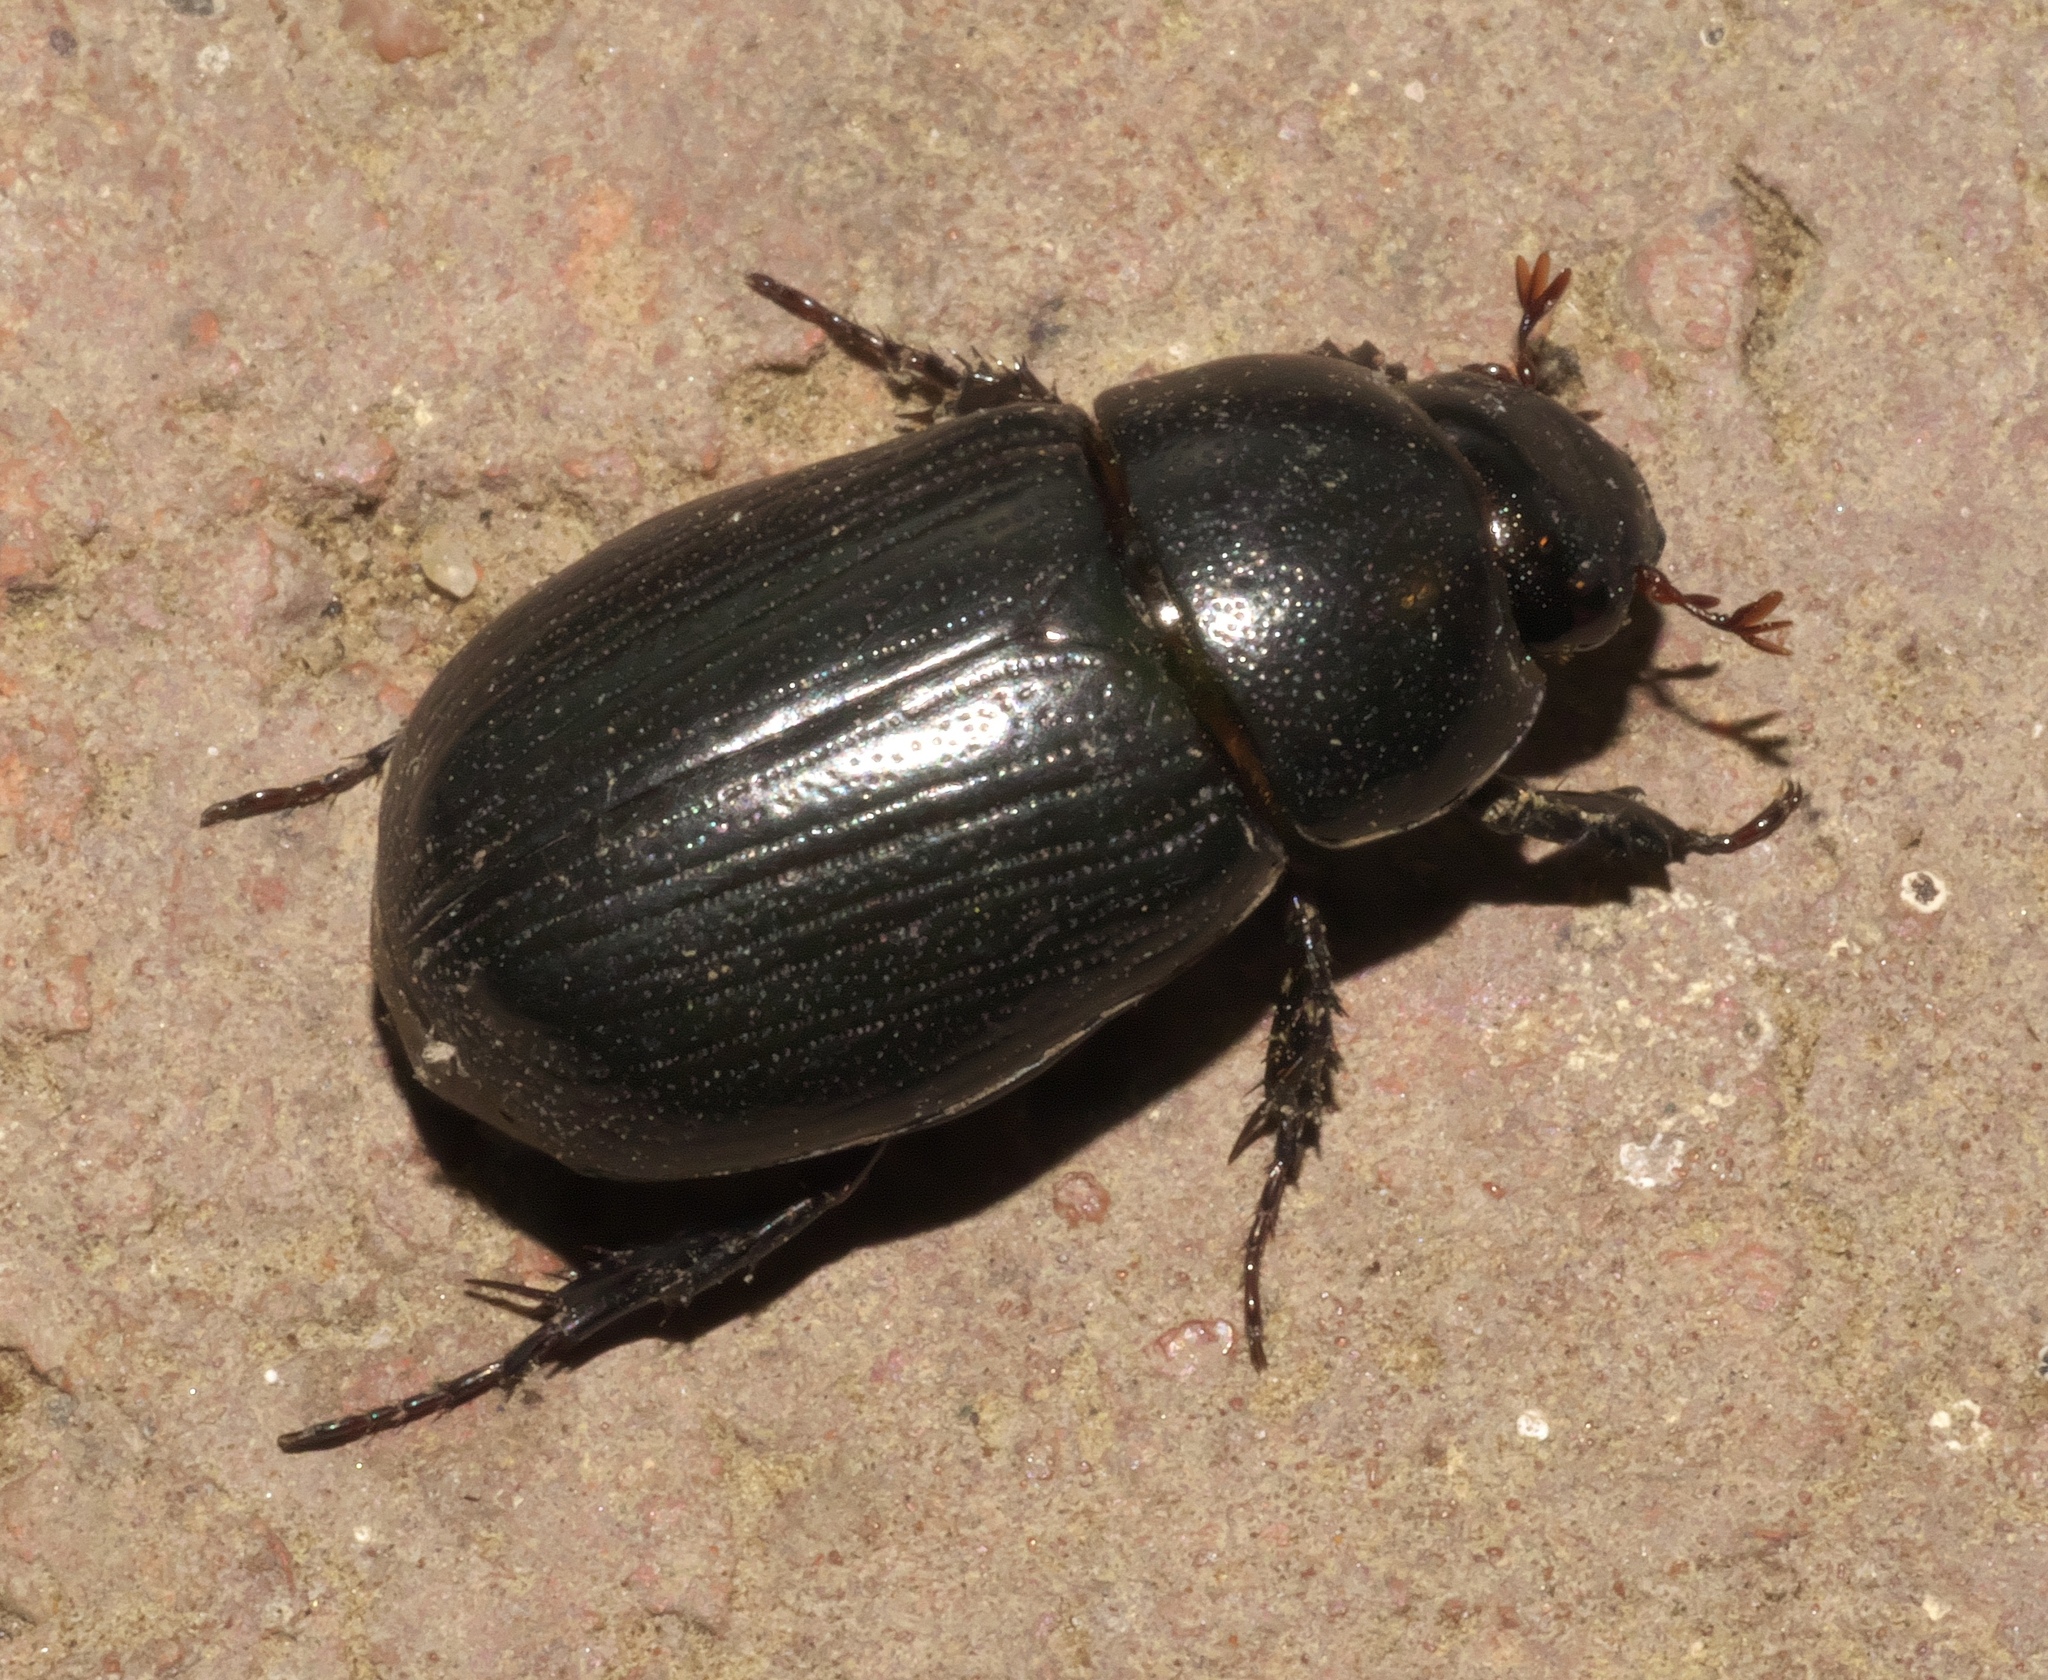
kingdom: Animalia
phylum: Arthropoda
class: Insecta
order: Coleoptera
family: Scarabaeidae
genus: Dyscinetus
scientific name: Dyscinetus morator
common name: Rice beetle
